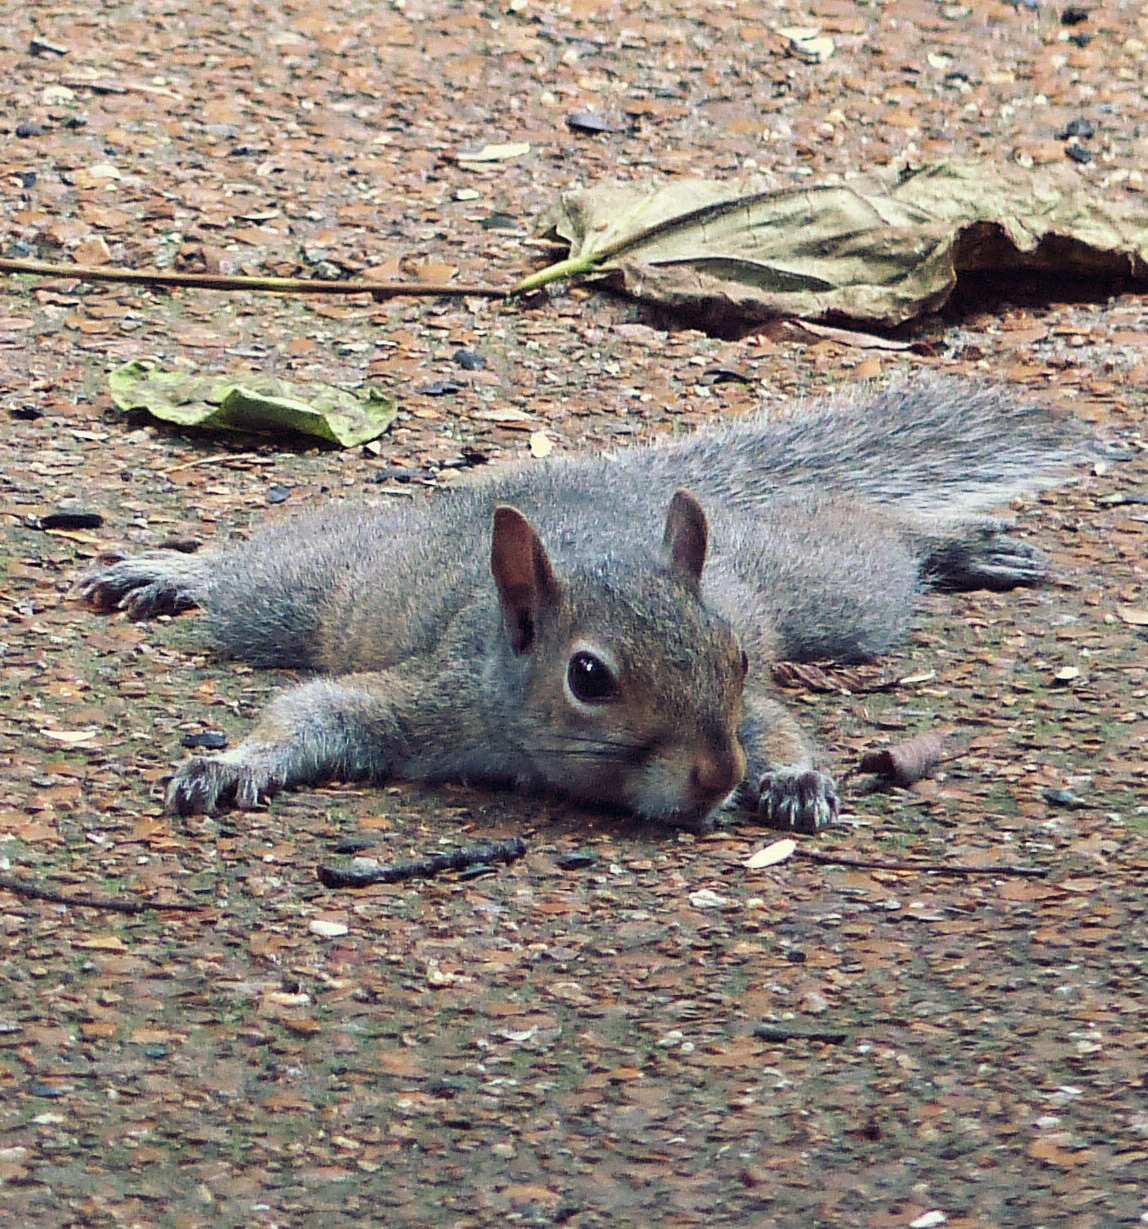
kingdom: Animalia
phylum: Chordata
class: Mammalia
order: Rodentia
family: Sciuridae
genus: Sciurus
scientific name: Sciurus carolinensis
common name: Eastern gray squirrel
